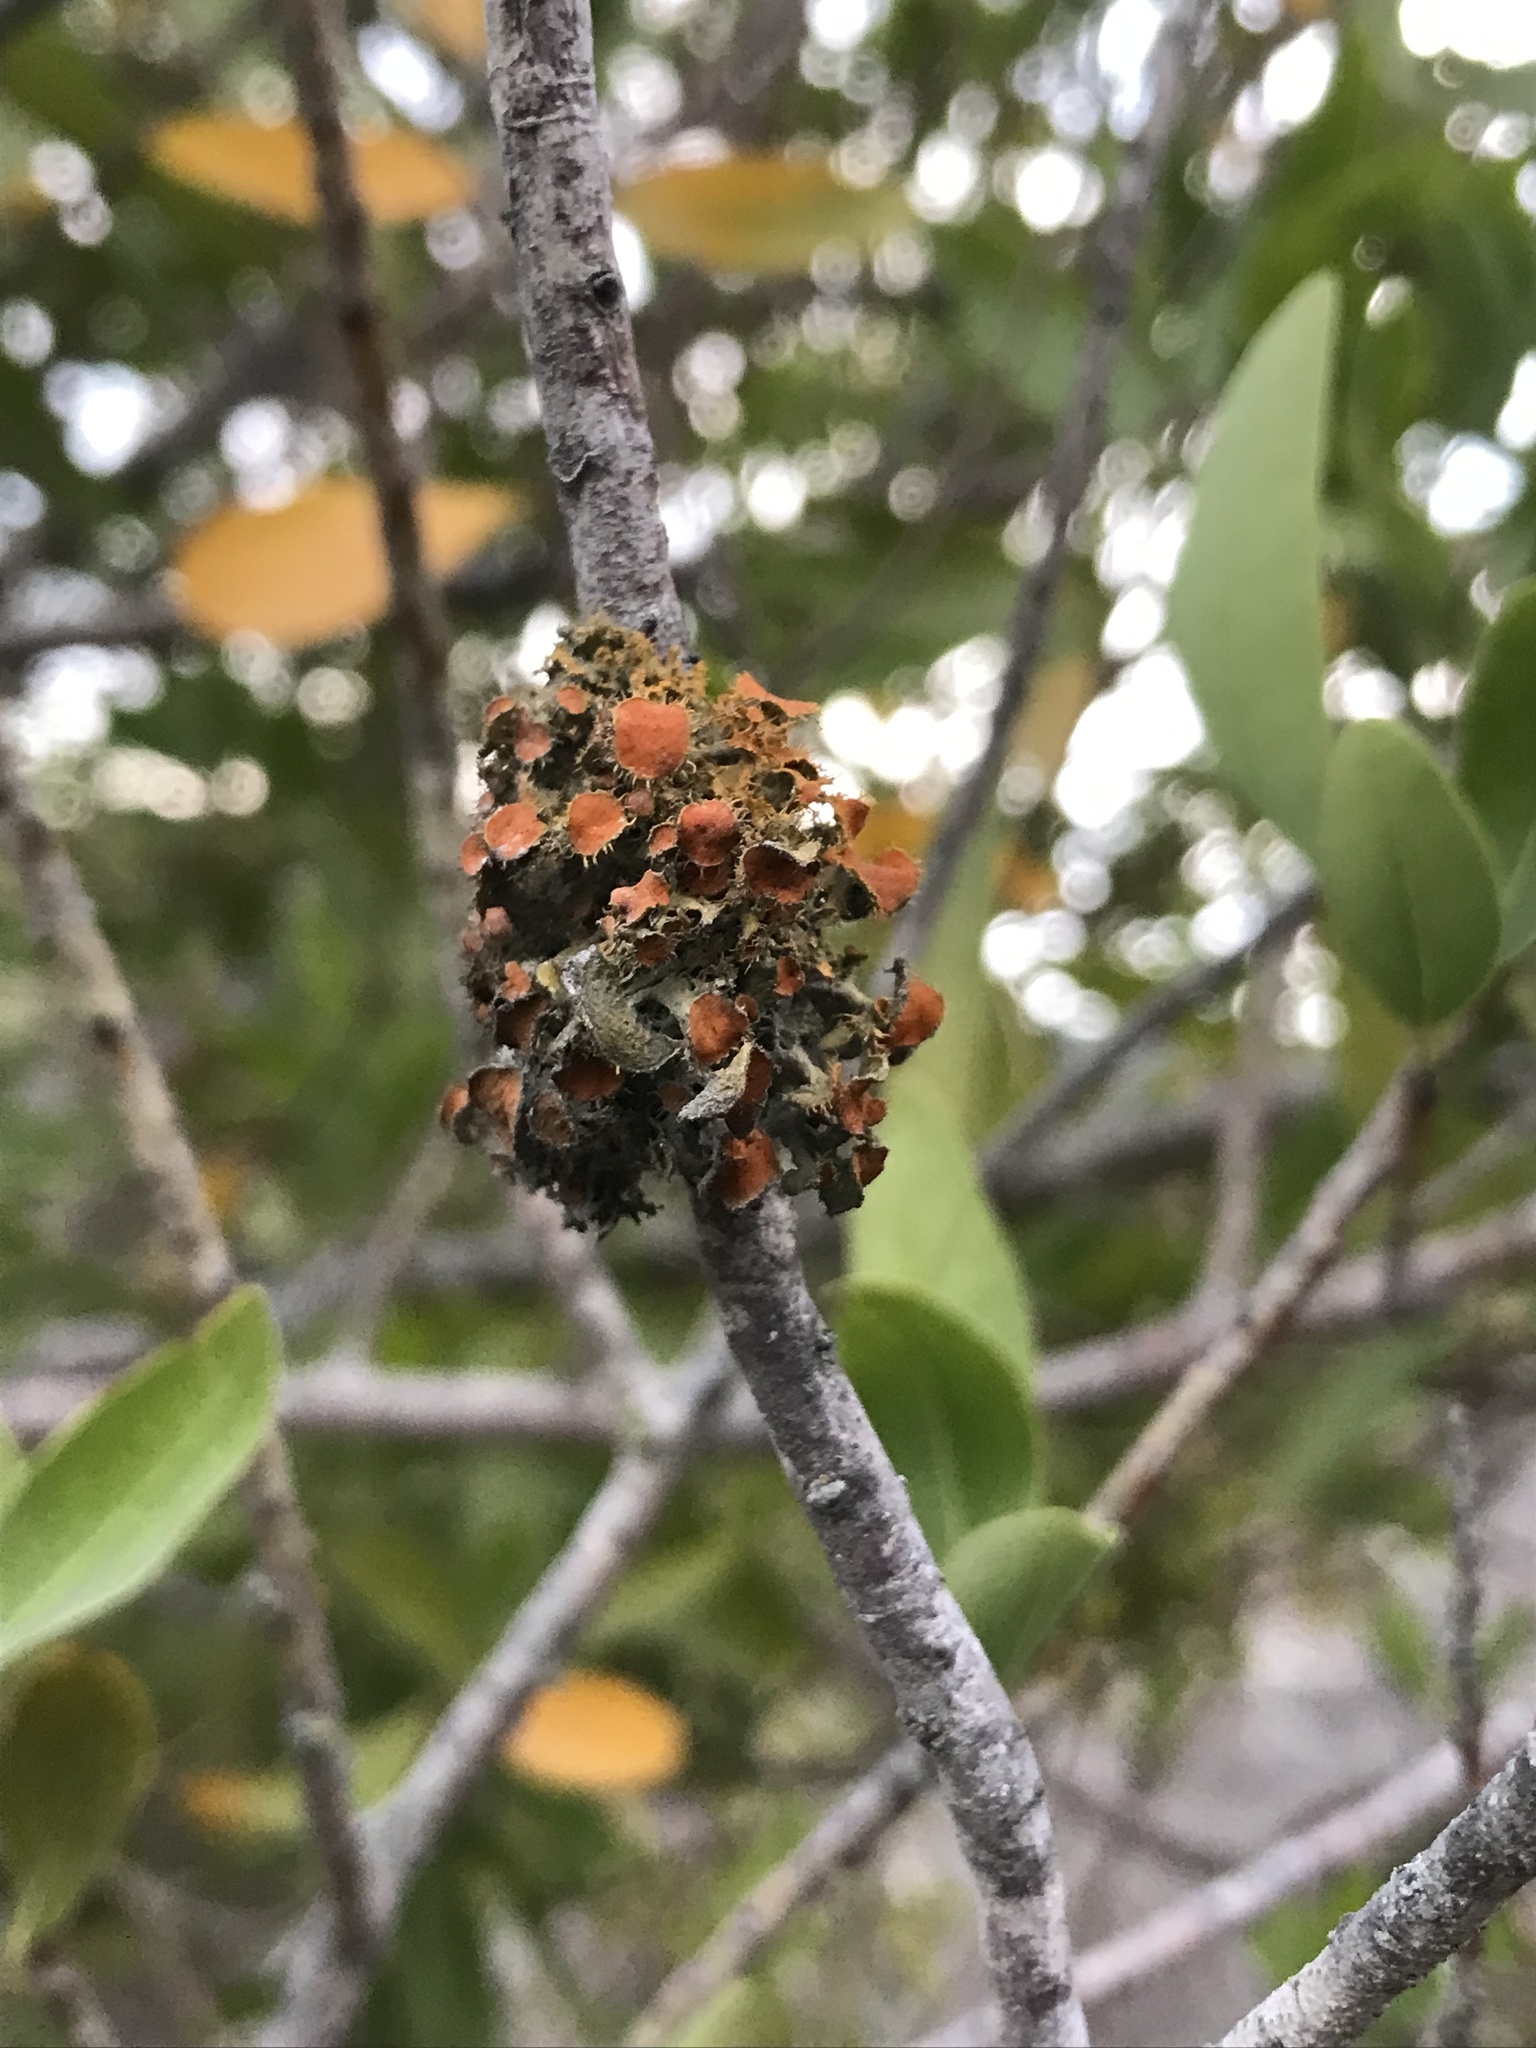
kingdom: Fungi
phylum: Ascomycota
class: Lecanoromycetes
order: Teloschistales
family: Teloschistaceae
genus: Niorma
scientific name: Niorma chrysophthalma
